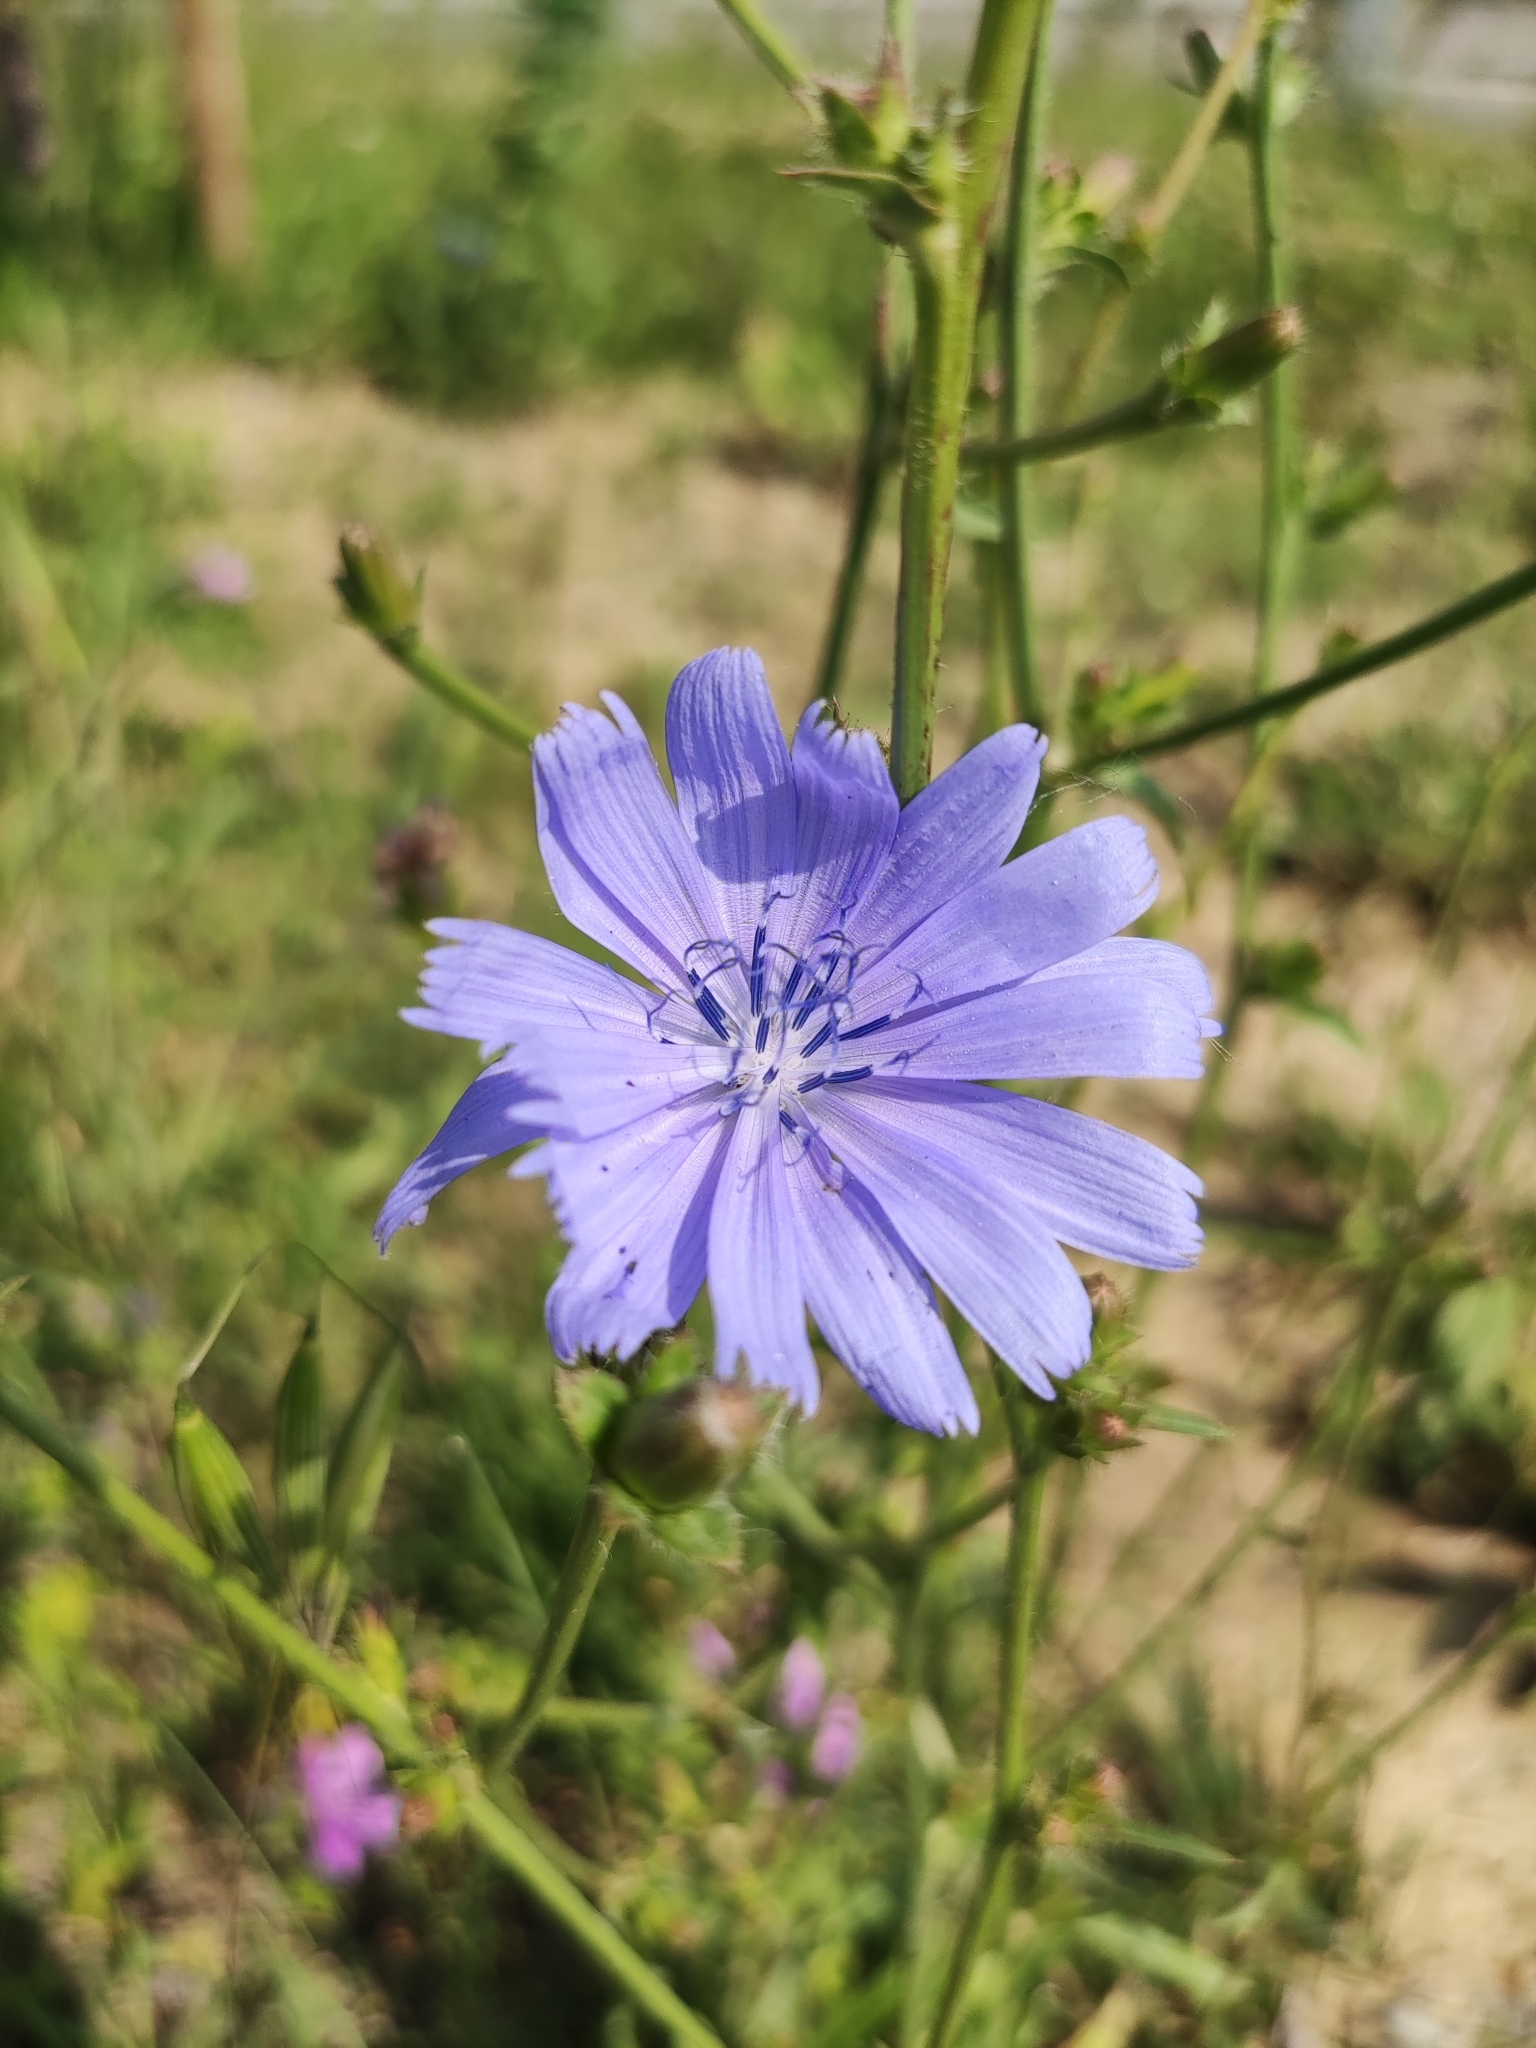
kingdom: Plantae
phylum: Tracheophyta
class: Magnoliopsida
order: Asterales
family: Asteraceae
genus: Cichorium
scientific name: Cichorium intybus
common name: Chicory
